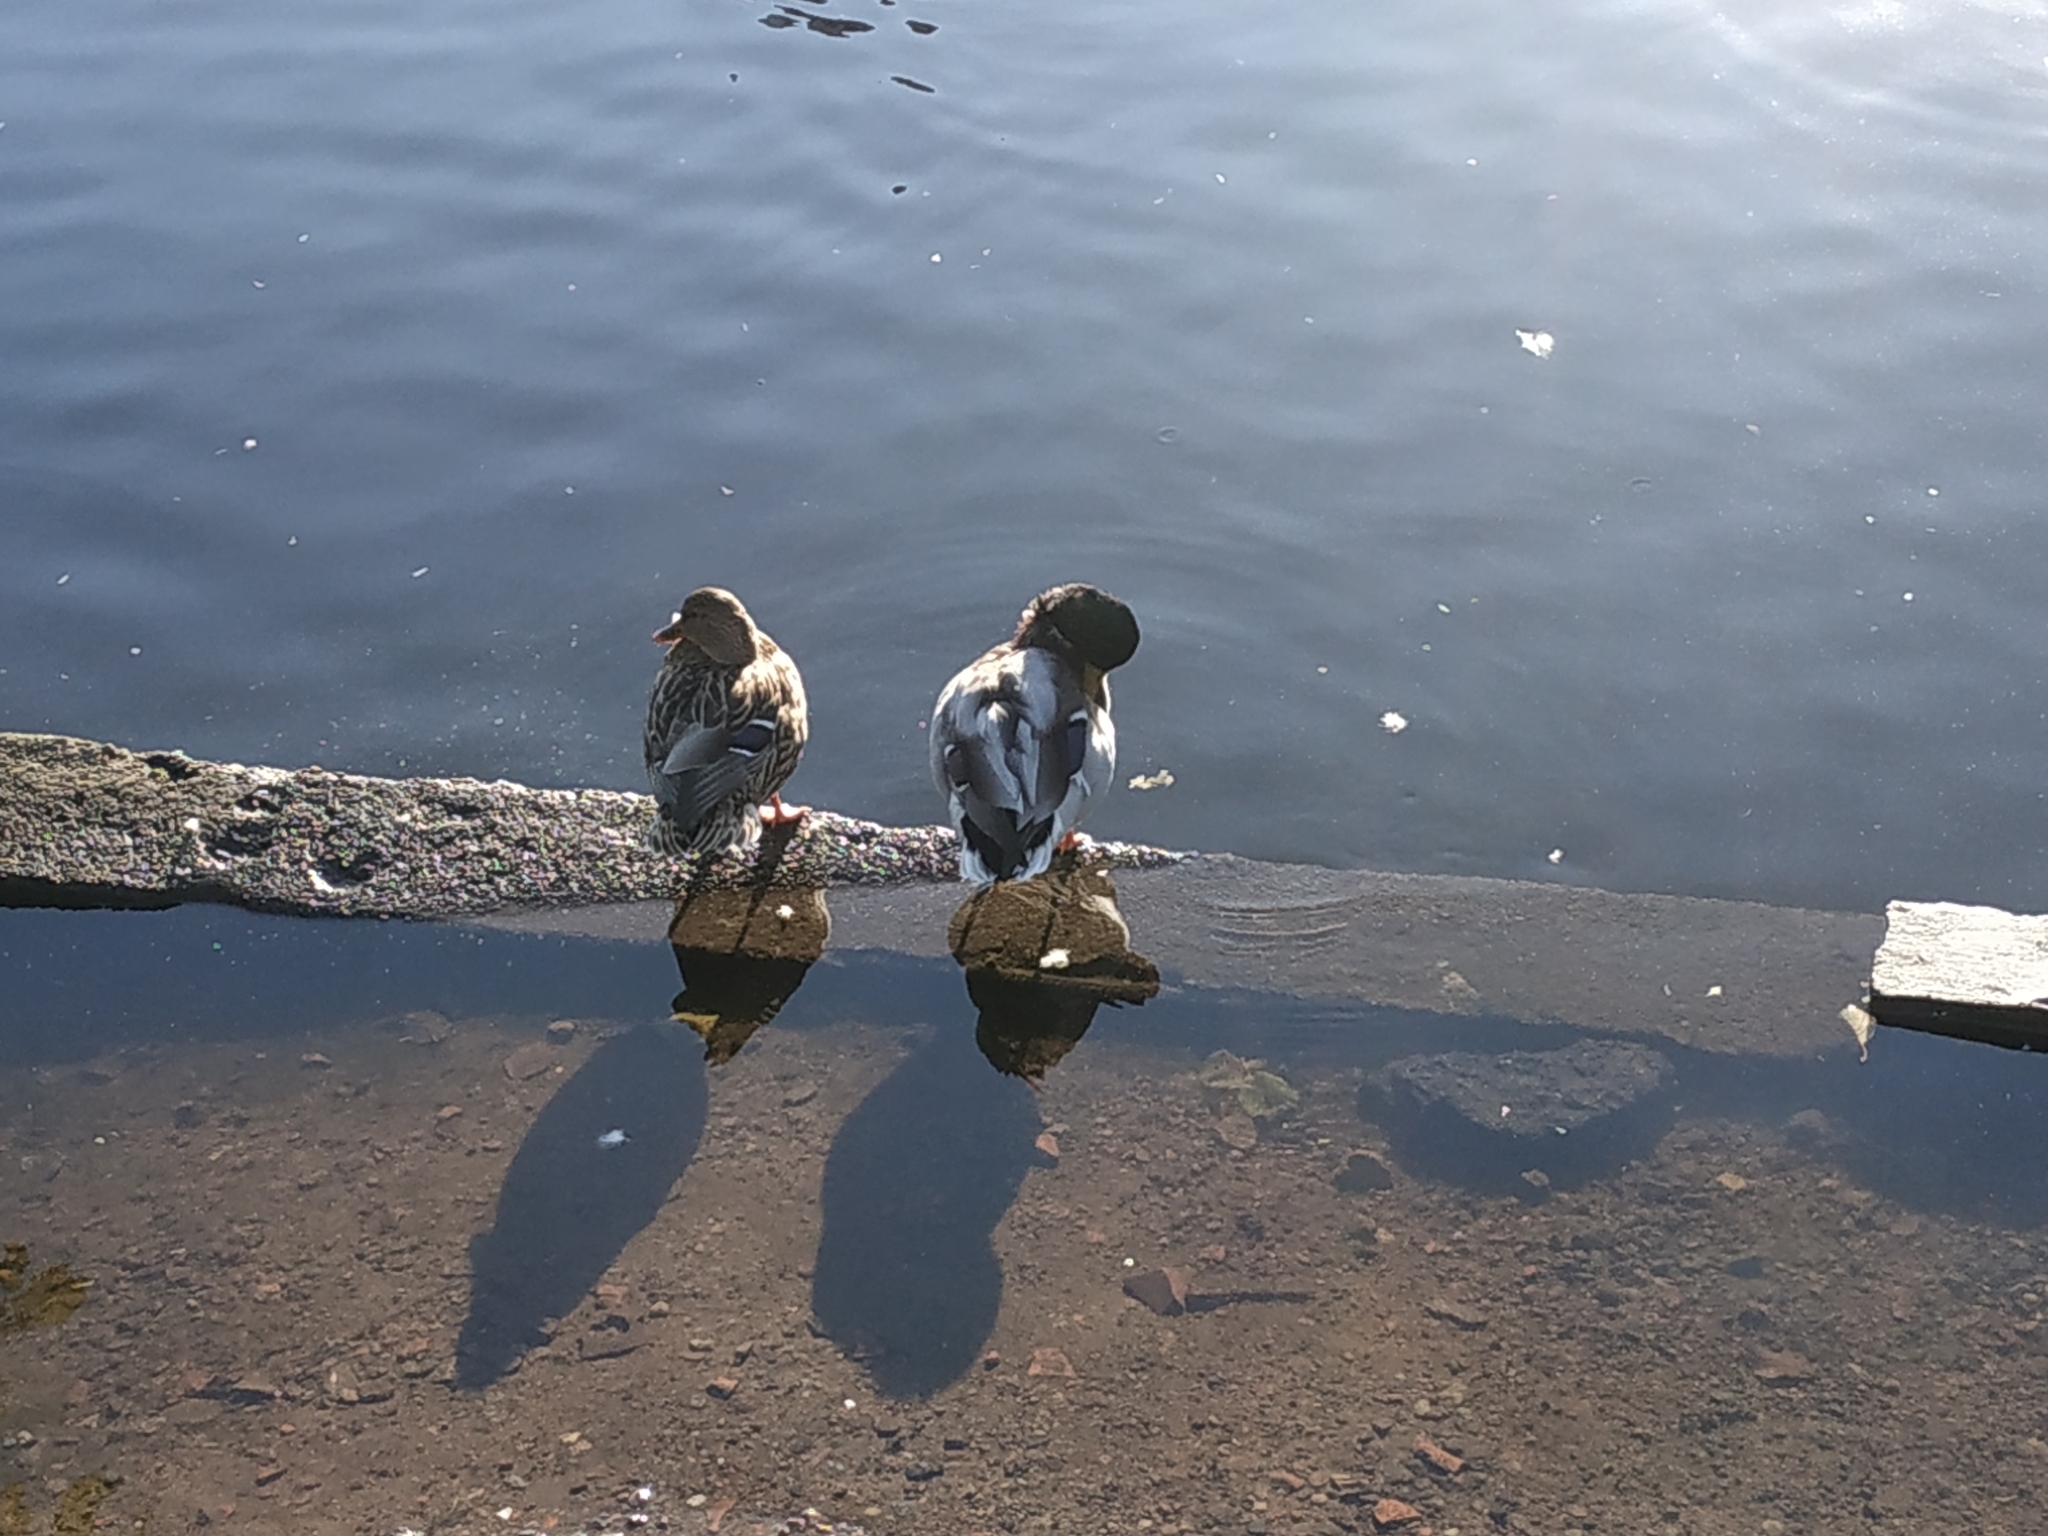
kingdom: Animalia
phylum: Chordata
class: Aves
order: Anseriformes
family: Anatidae
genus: Anas
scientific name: Anas platyrhynchos
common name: Mallard
